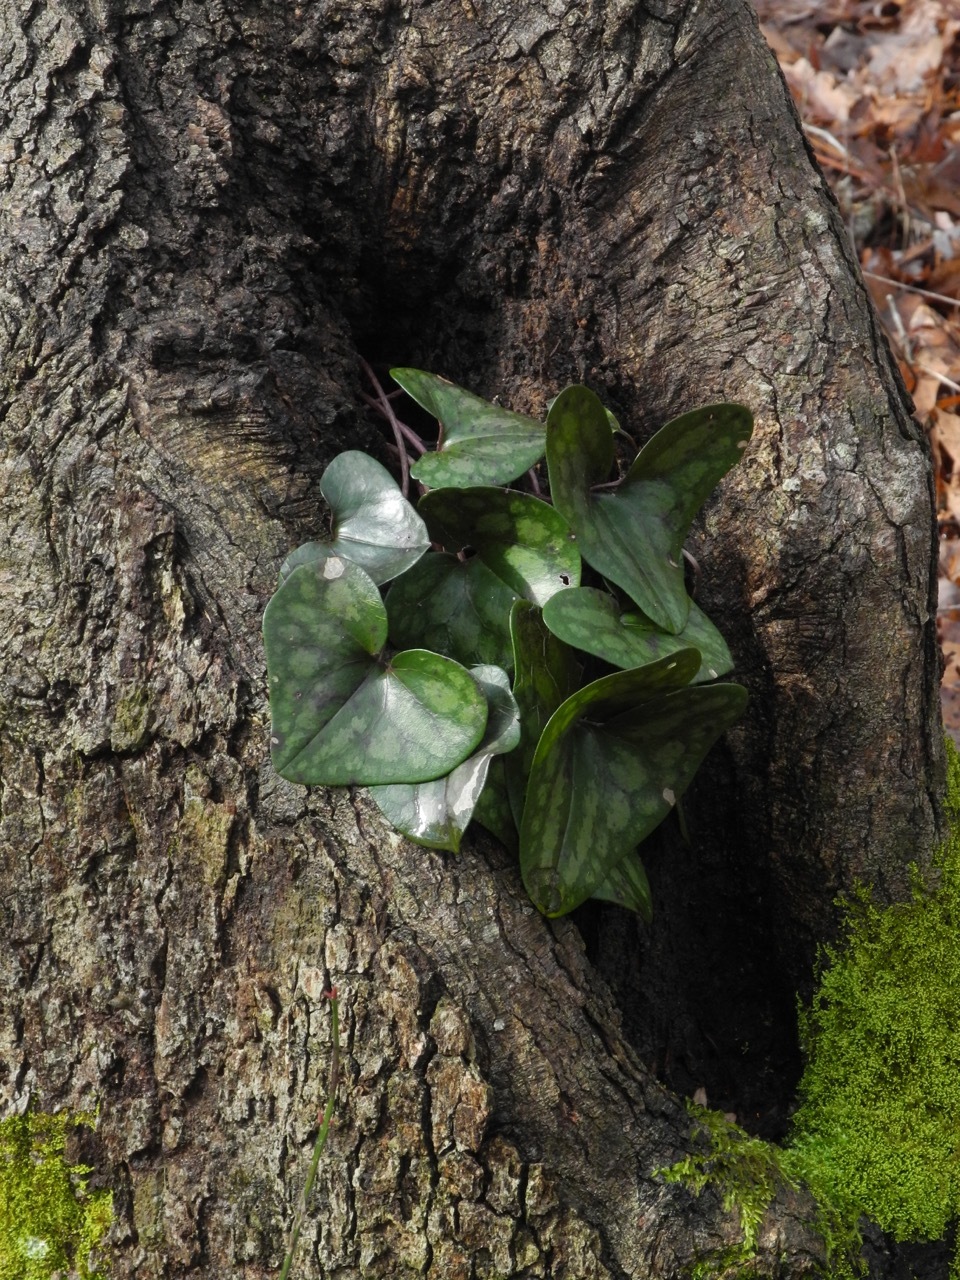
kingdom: Plantae
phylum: Tracheophyta
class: Magnoliopsida
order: Piperales
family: Aristolochiaceae
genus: Hexastylis
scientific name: Hexastylis arifolia
